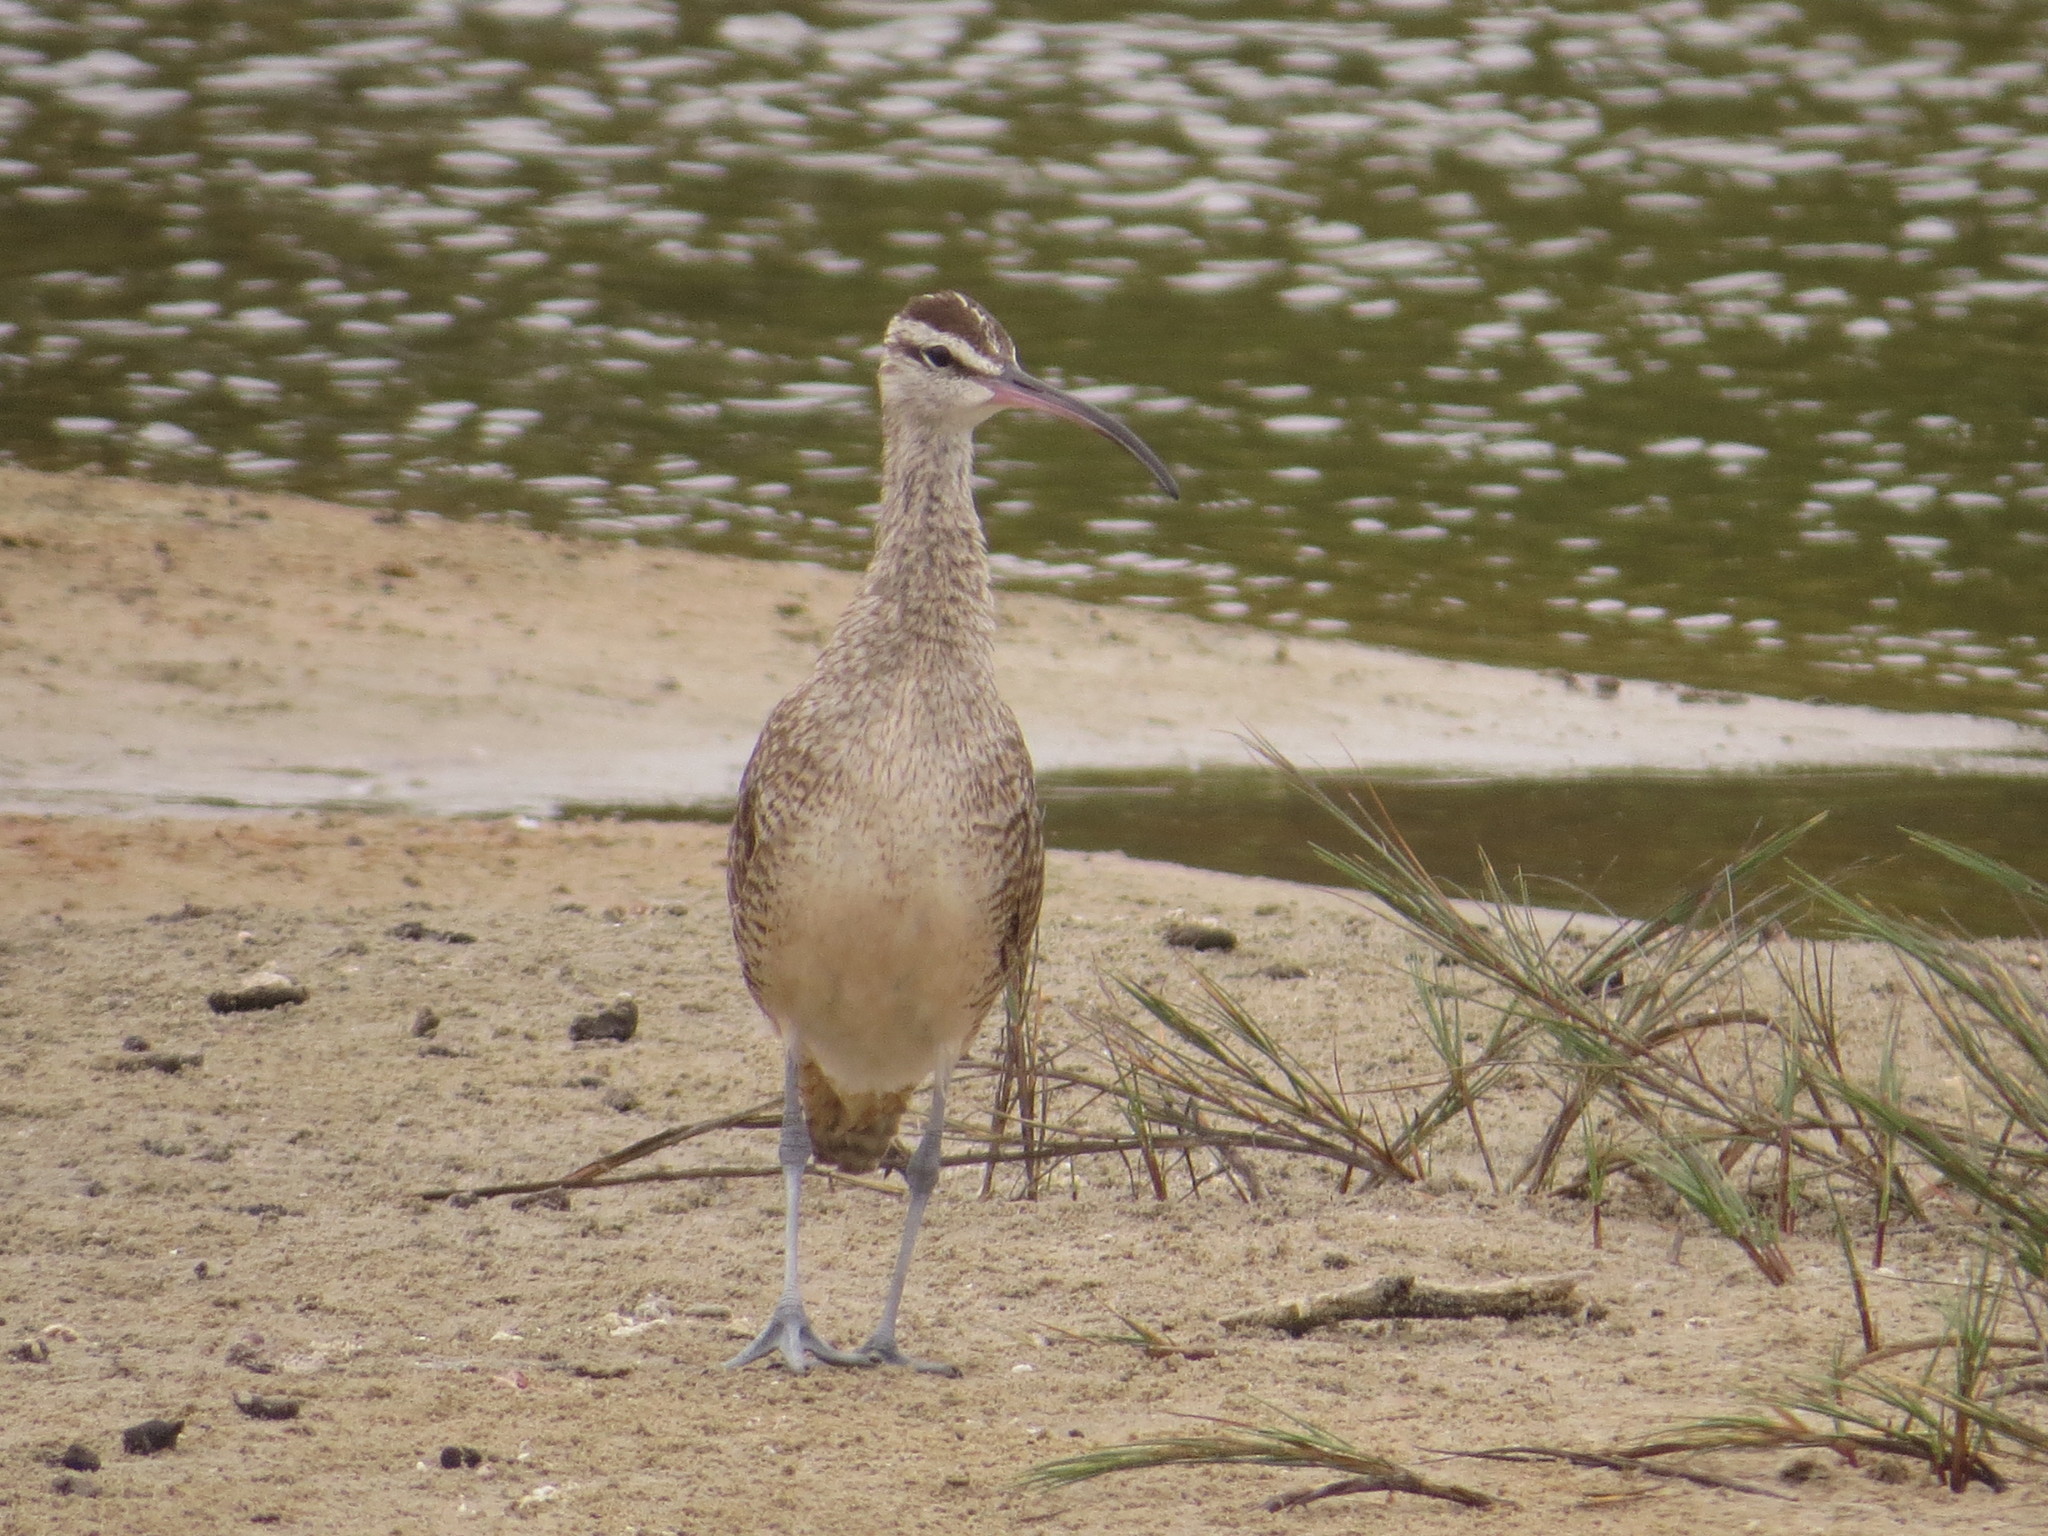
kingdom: Animalia
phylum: Chordata
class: Aves
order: Charadriiformes
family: Scolopacidae
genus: Numenius
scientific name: Numenius phaeopus
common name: Whimbrel
